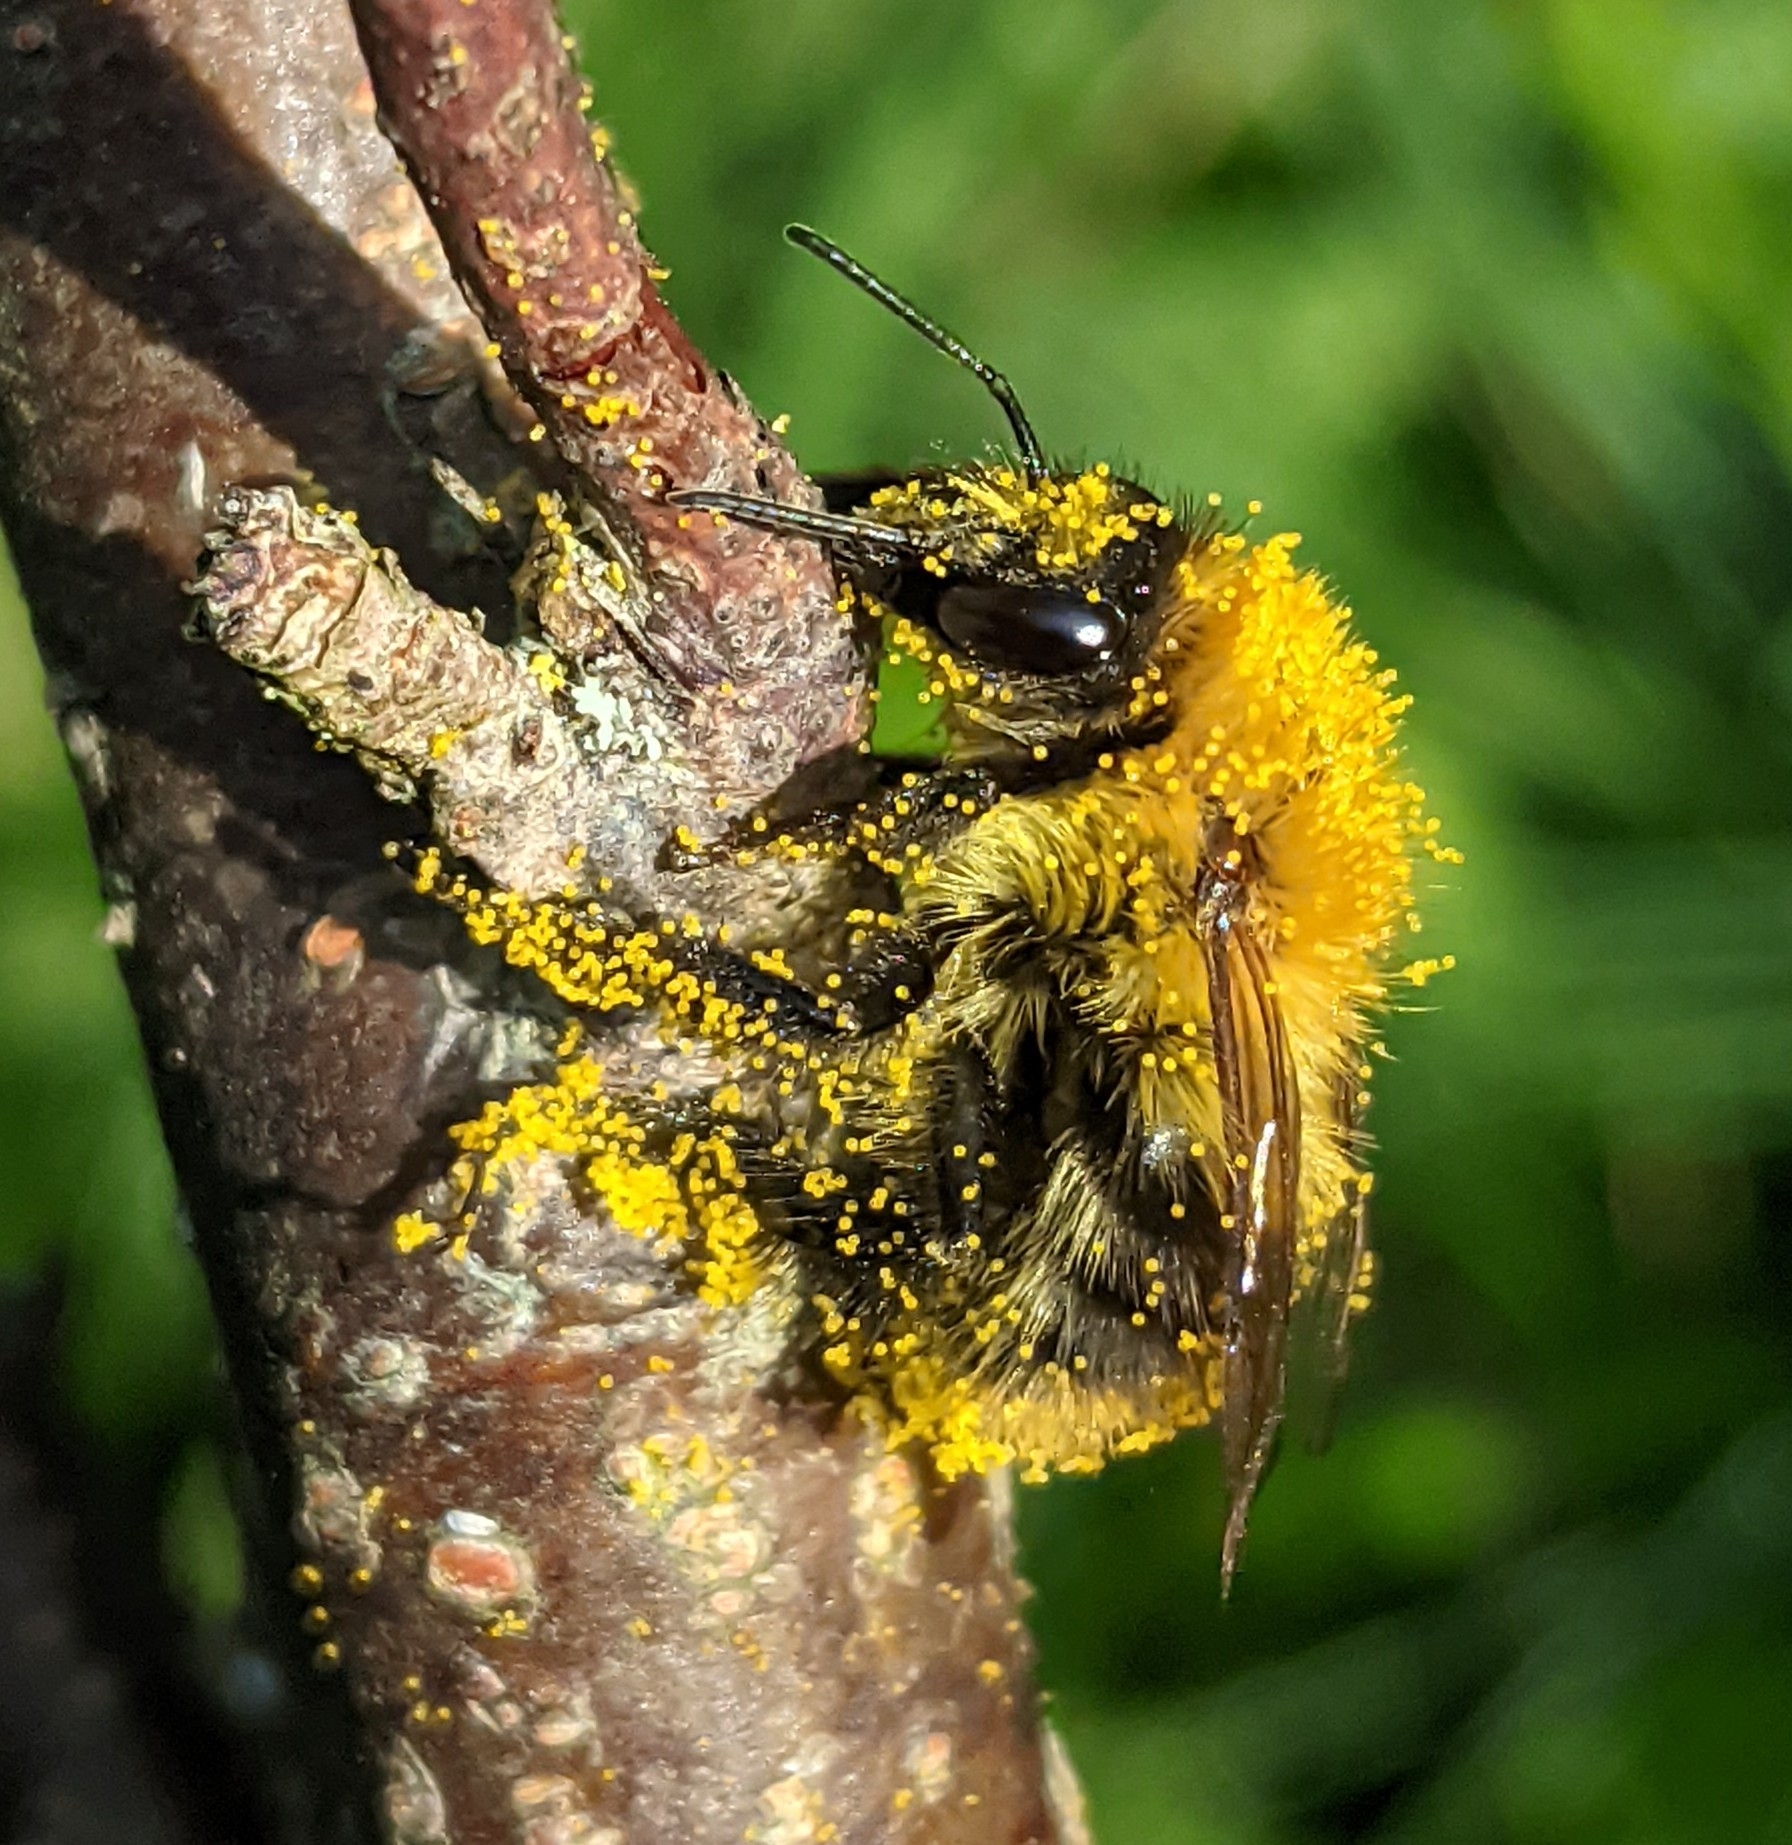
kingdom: Animalia
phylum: Arthropoda
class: Insecta
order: Hymenoptera
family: Apidae
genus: Bombus
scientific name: Bombus pascuorum
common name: Common carder bee
